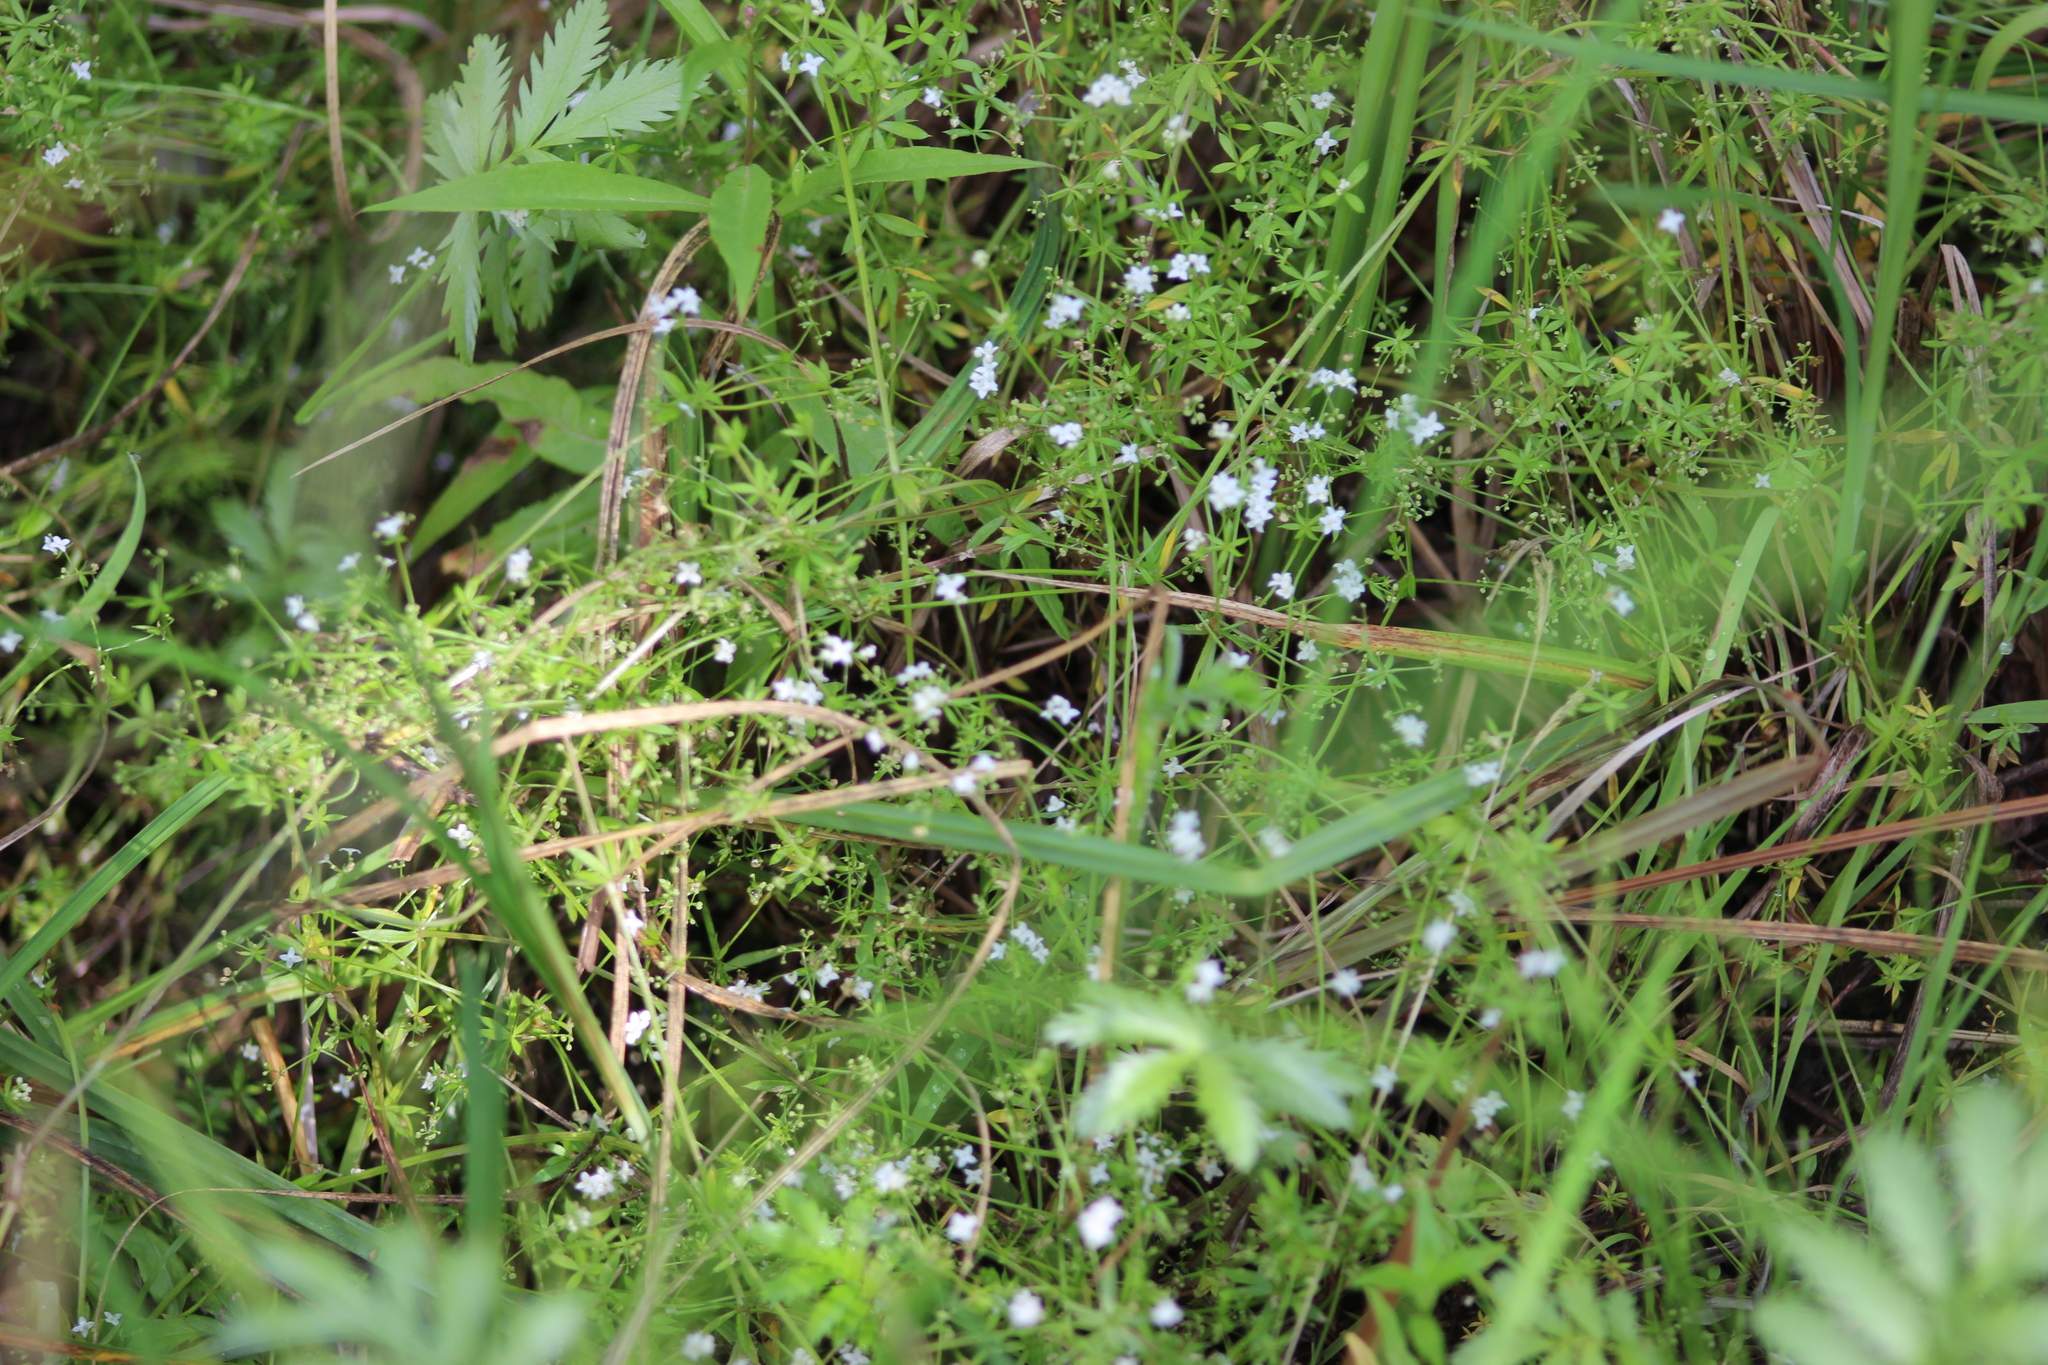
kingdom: Plantae
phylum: Tracheophyta
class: Magnoliopsida
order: Gentianales
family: Rubiaceae
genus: Galium
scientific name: Galium uliginosum
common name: Fen bedstraw
